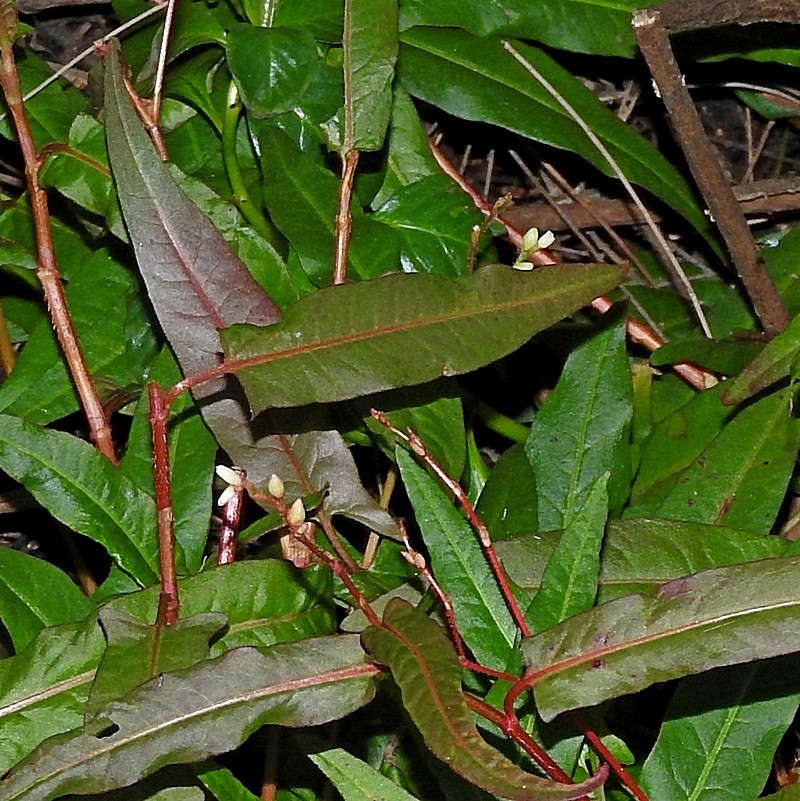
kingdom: Plantae
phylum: Tracheophyta
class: Magnoliopsida
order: Caryophyllales
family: Polygonaceae
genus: Persicaria
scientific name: Persicaria praetermissa
